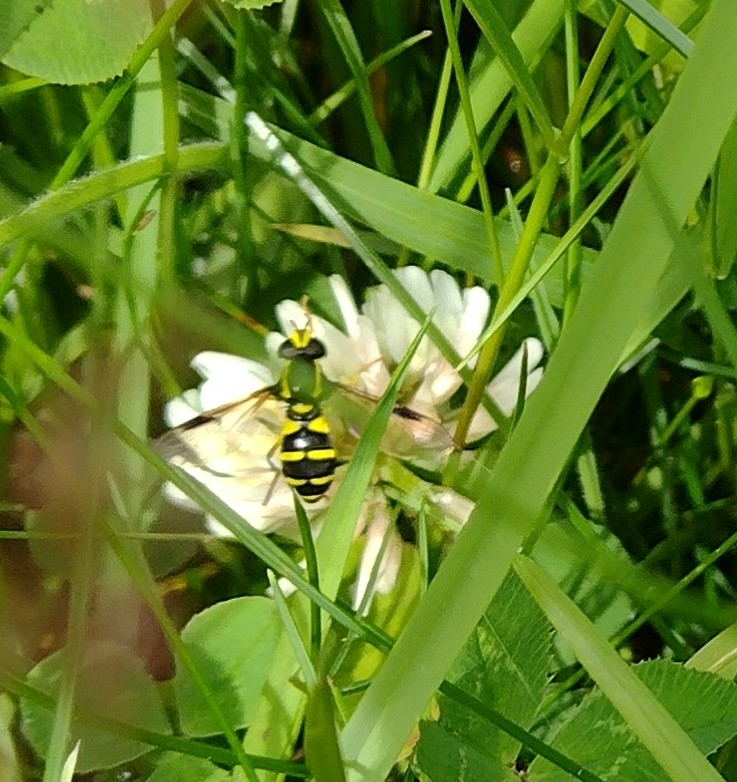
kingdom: Animalia
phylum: Arthropoda
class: Insecta
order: Diptera
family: Syrphidae
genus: Philhelius
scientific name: Philhelius pedissequum
